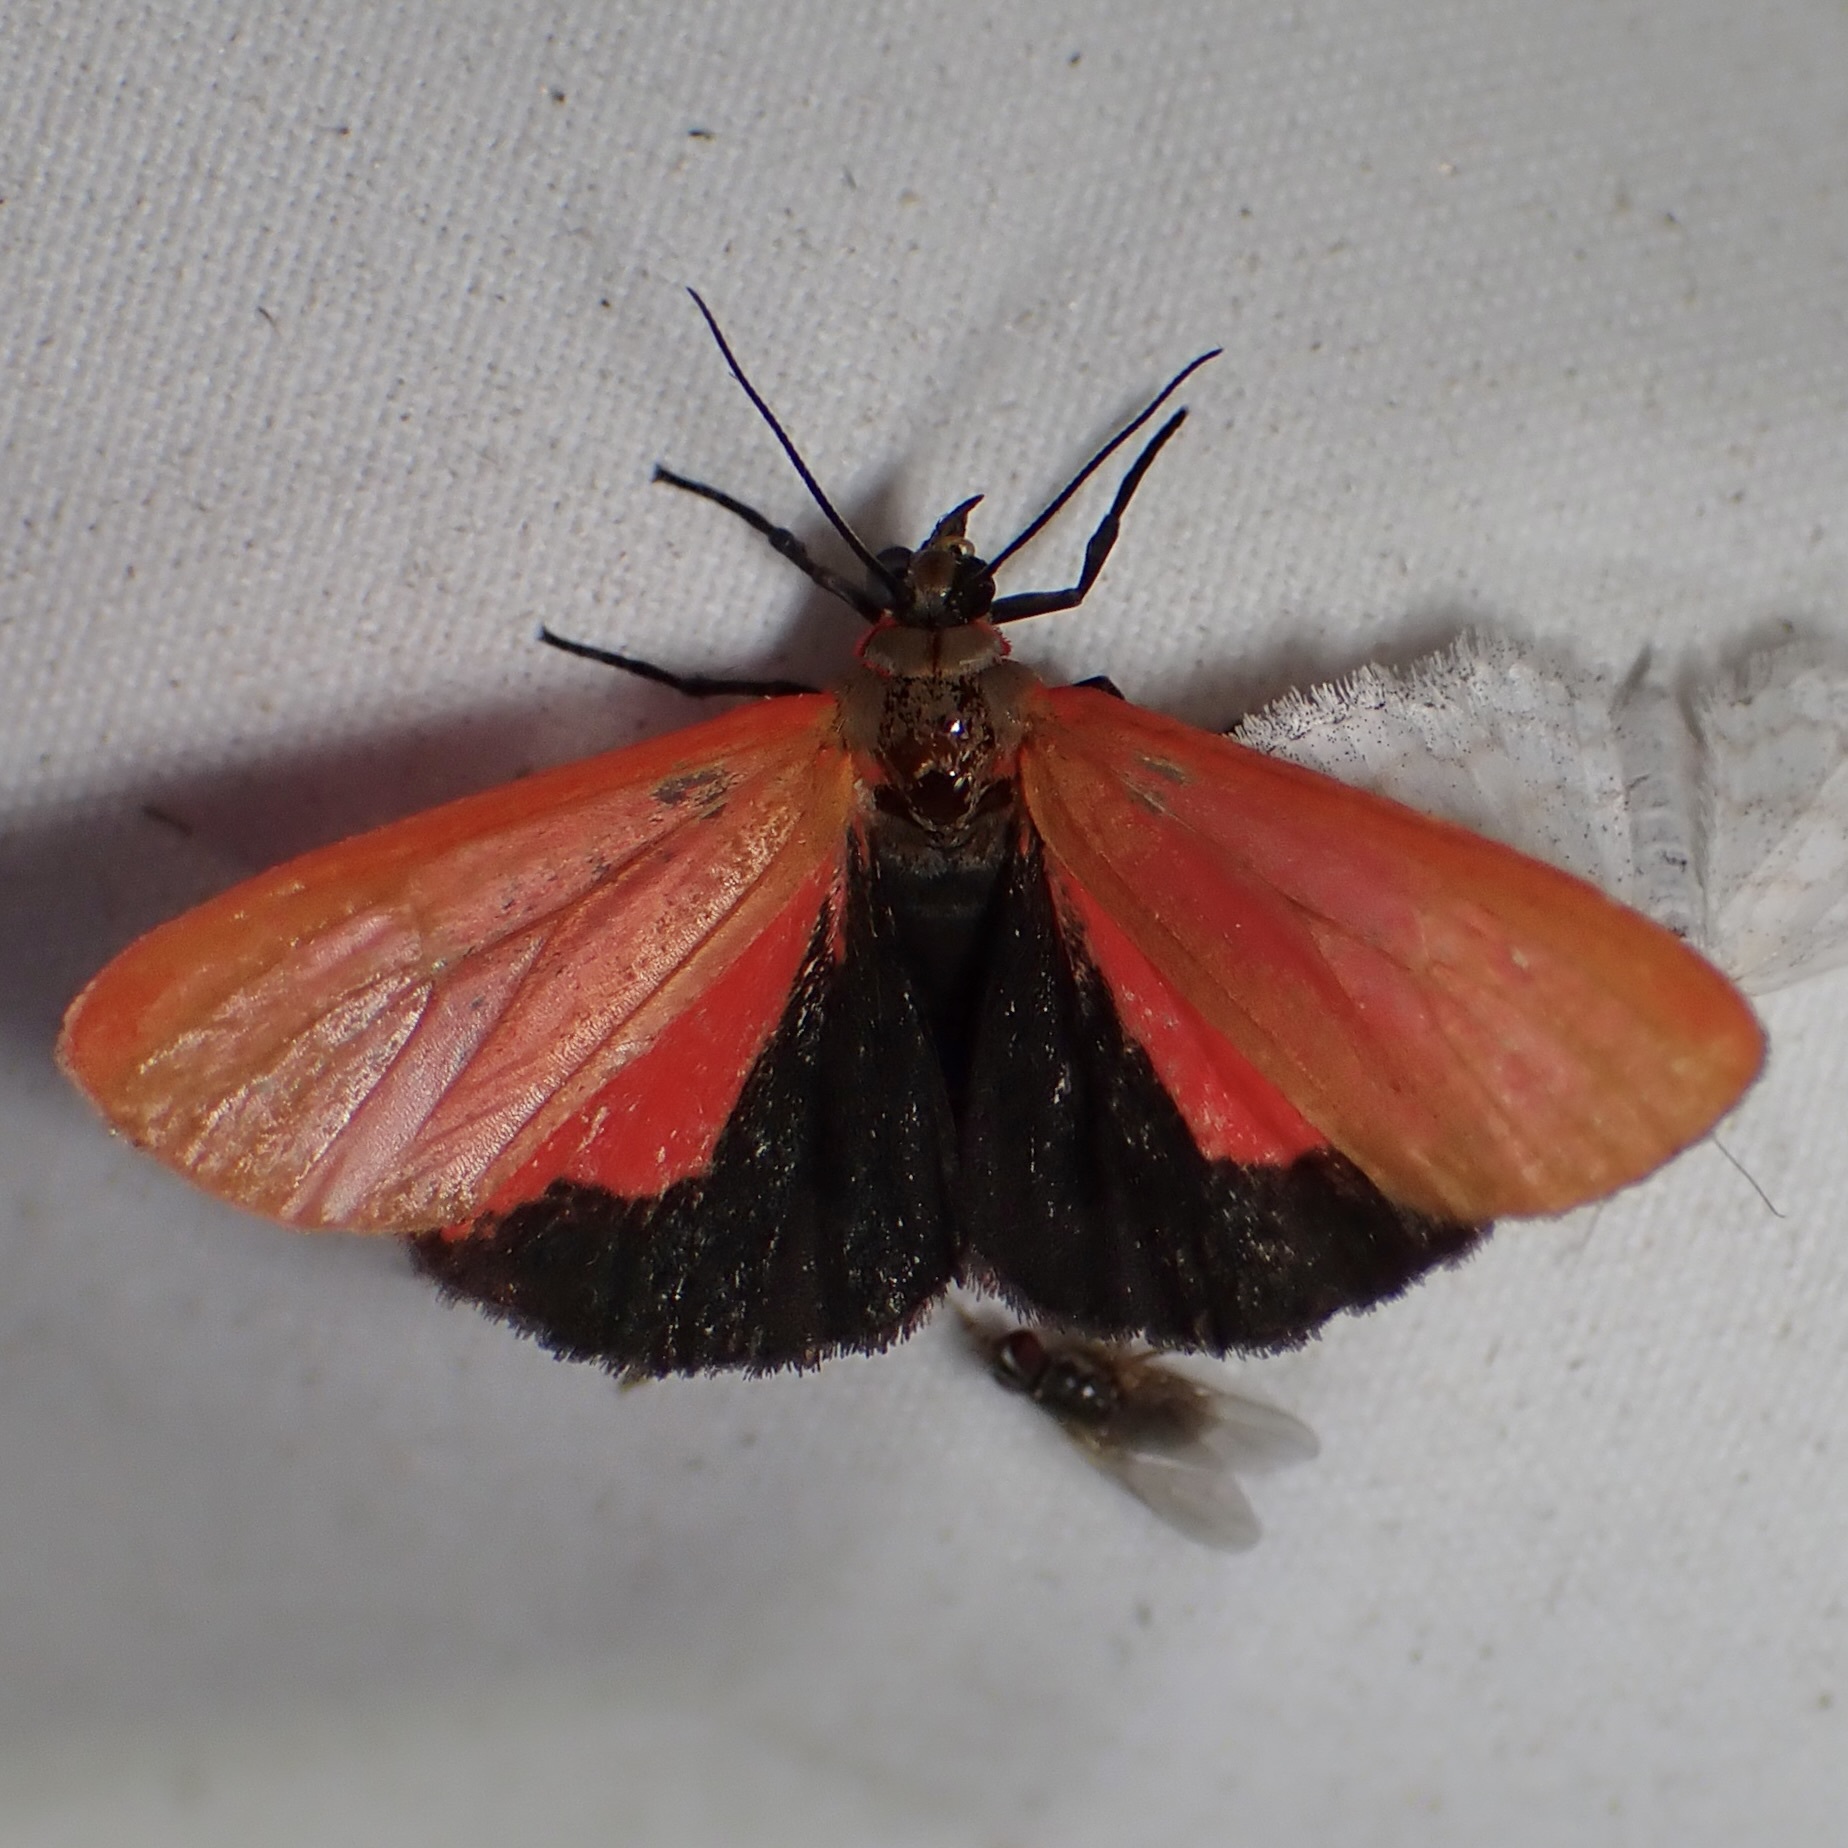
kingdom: Animalia
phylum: Arthropoda
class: Insecta
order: Lepidoptera
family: Erebidae
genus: Virbia
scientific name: Virbia ostenta
